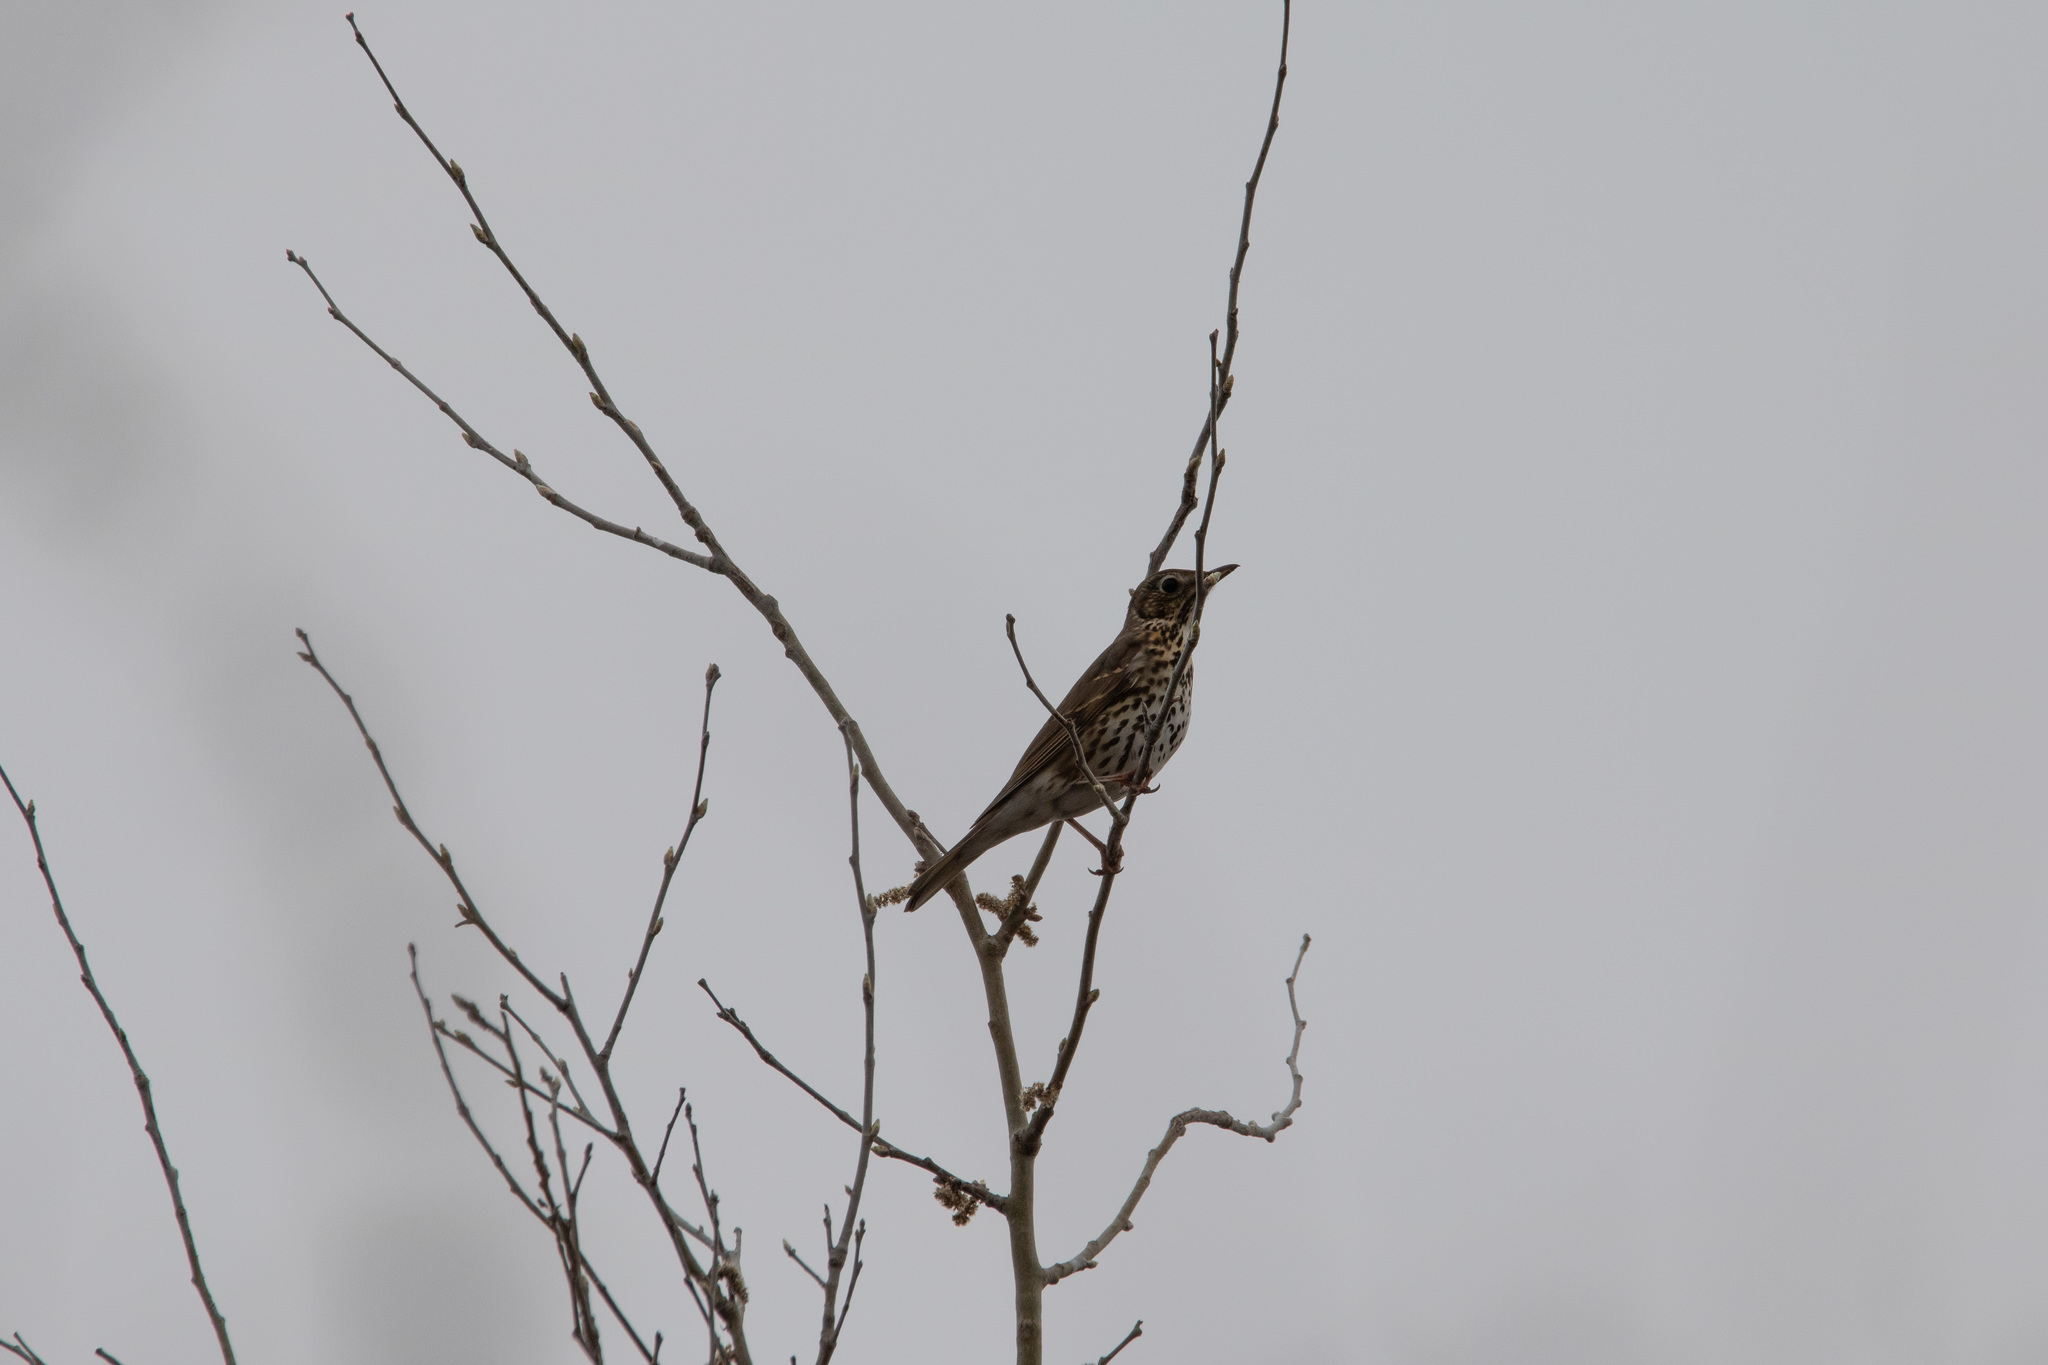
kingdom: Animalia
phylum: Chordata
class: Aves
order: Passeriformes
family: Turdidae
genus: Turdus
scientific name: Turdus philomelos
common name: Song thrush
